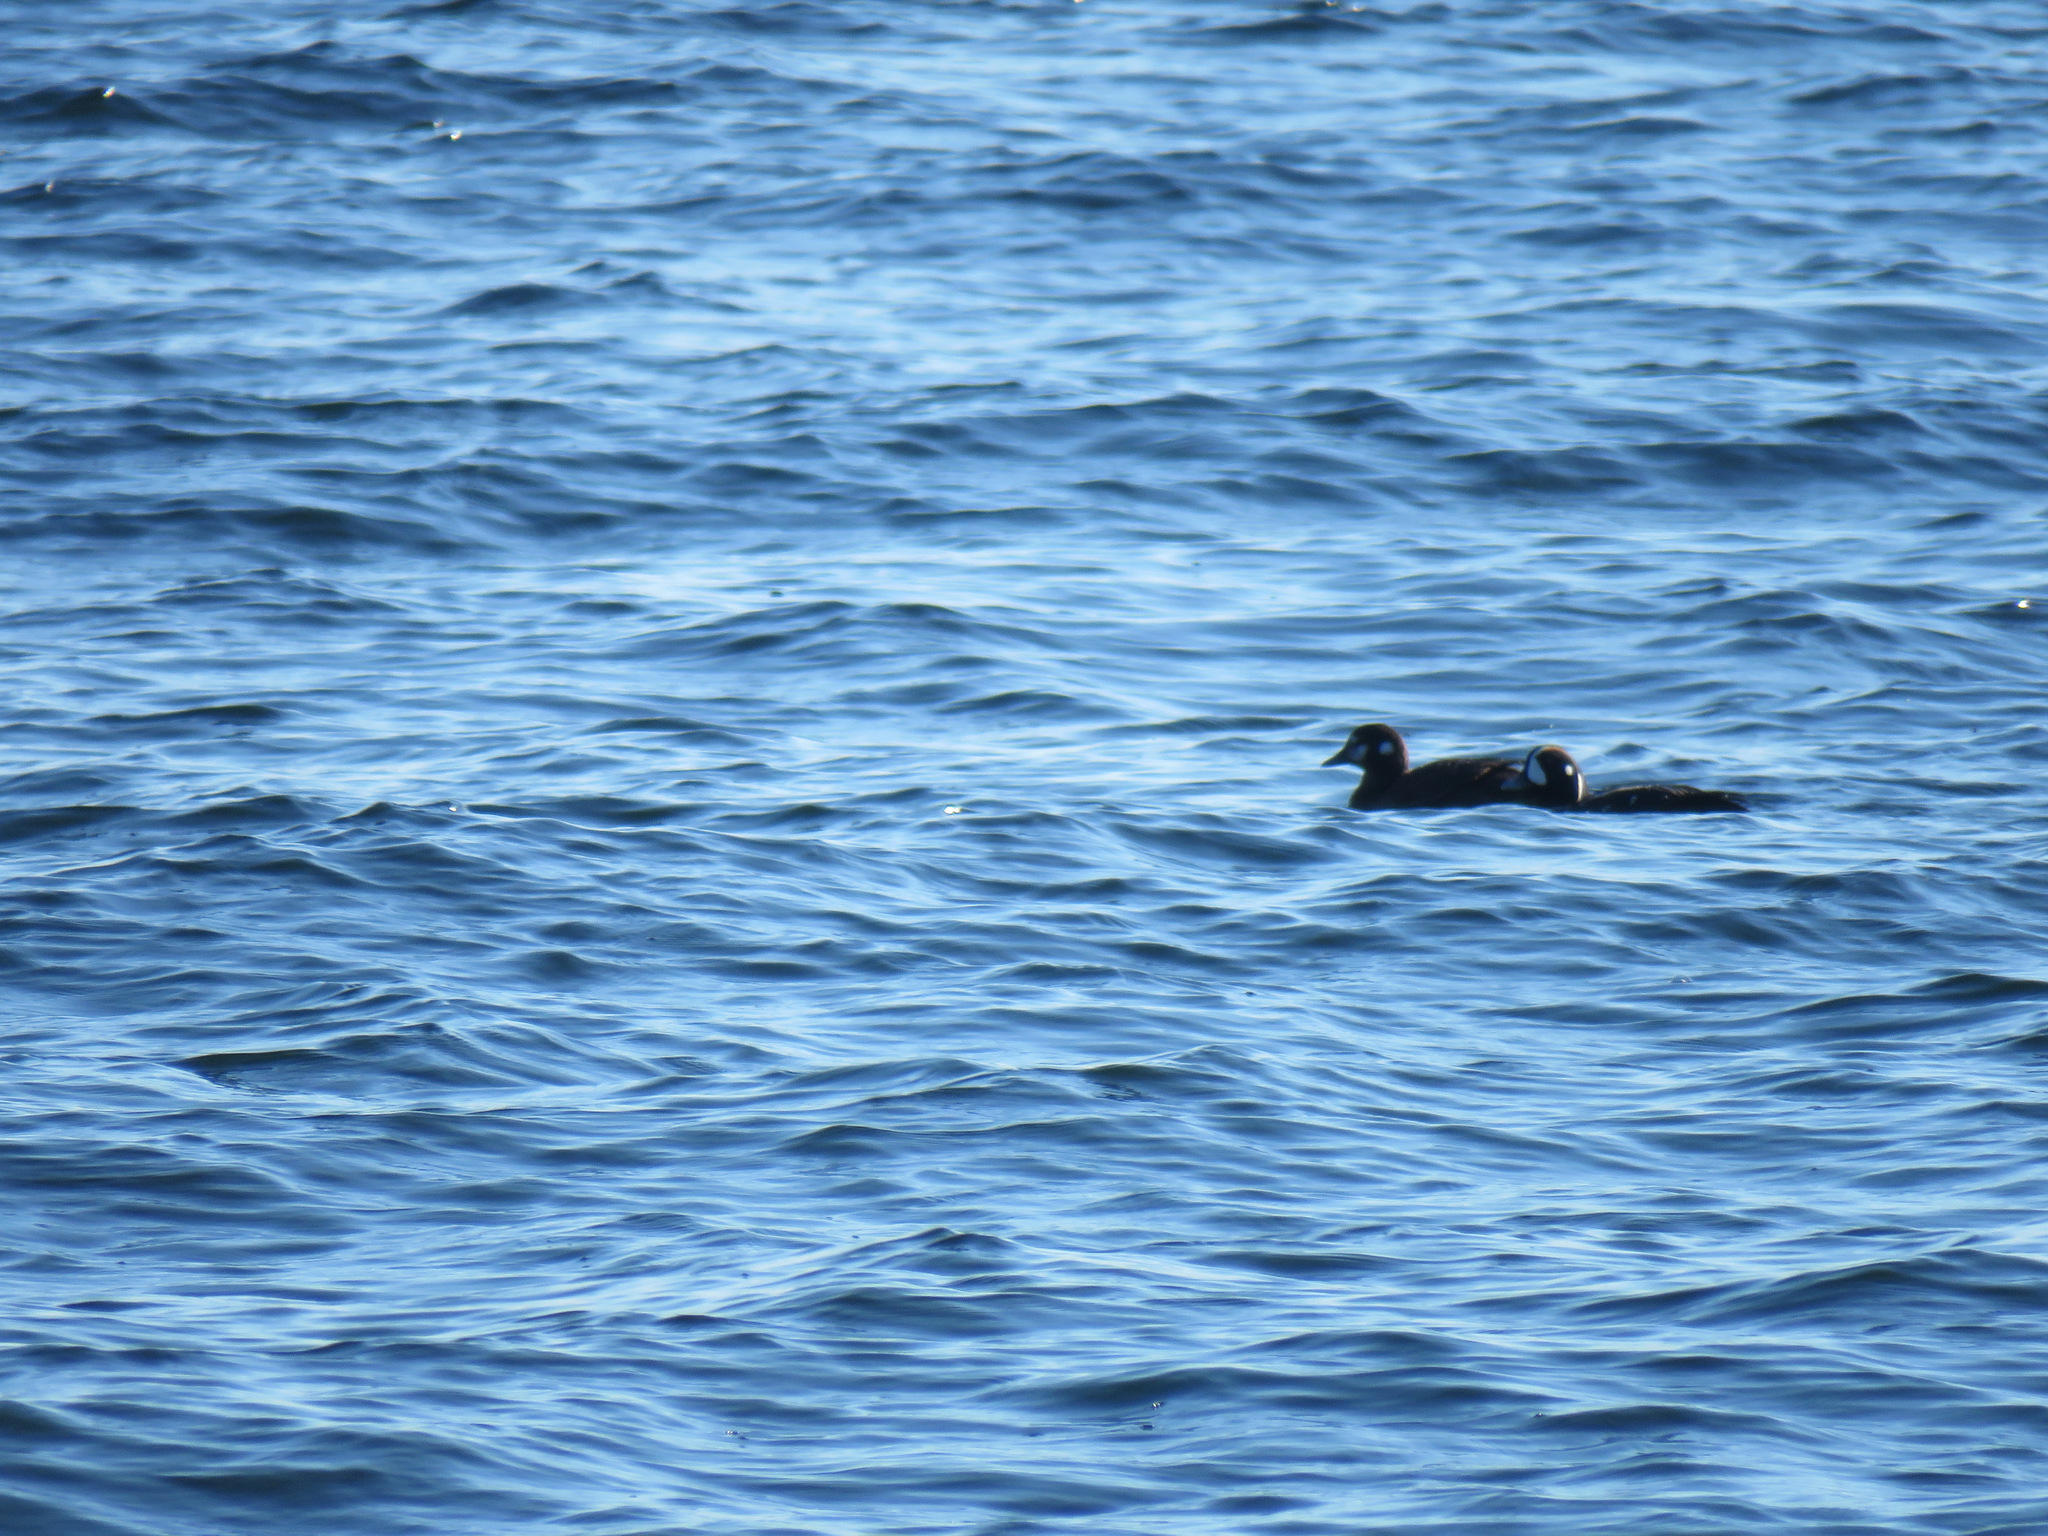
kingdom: Animalia
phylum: Chordata
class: Aves
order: Anseriformes
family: Anatidae
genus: Histrionicus
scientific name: Histrionicus histrionicus
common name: Harlequin duck
